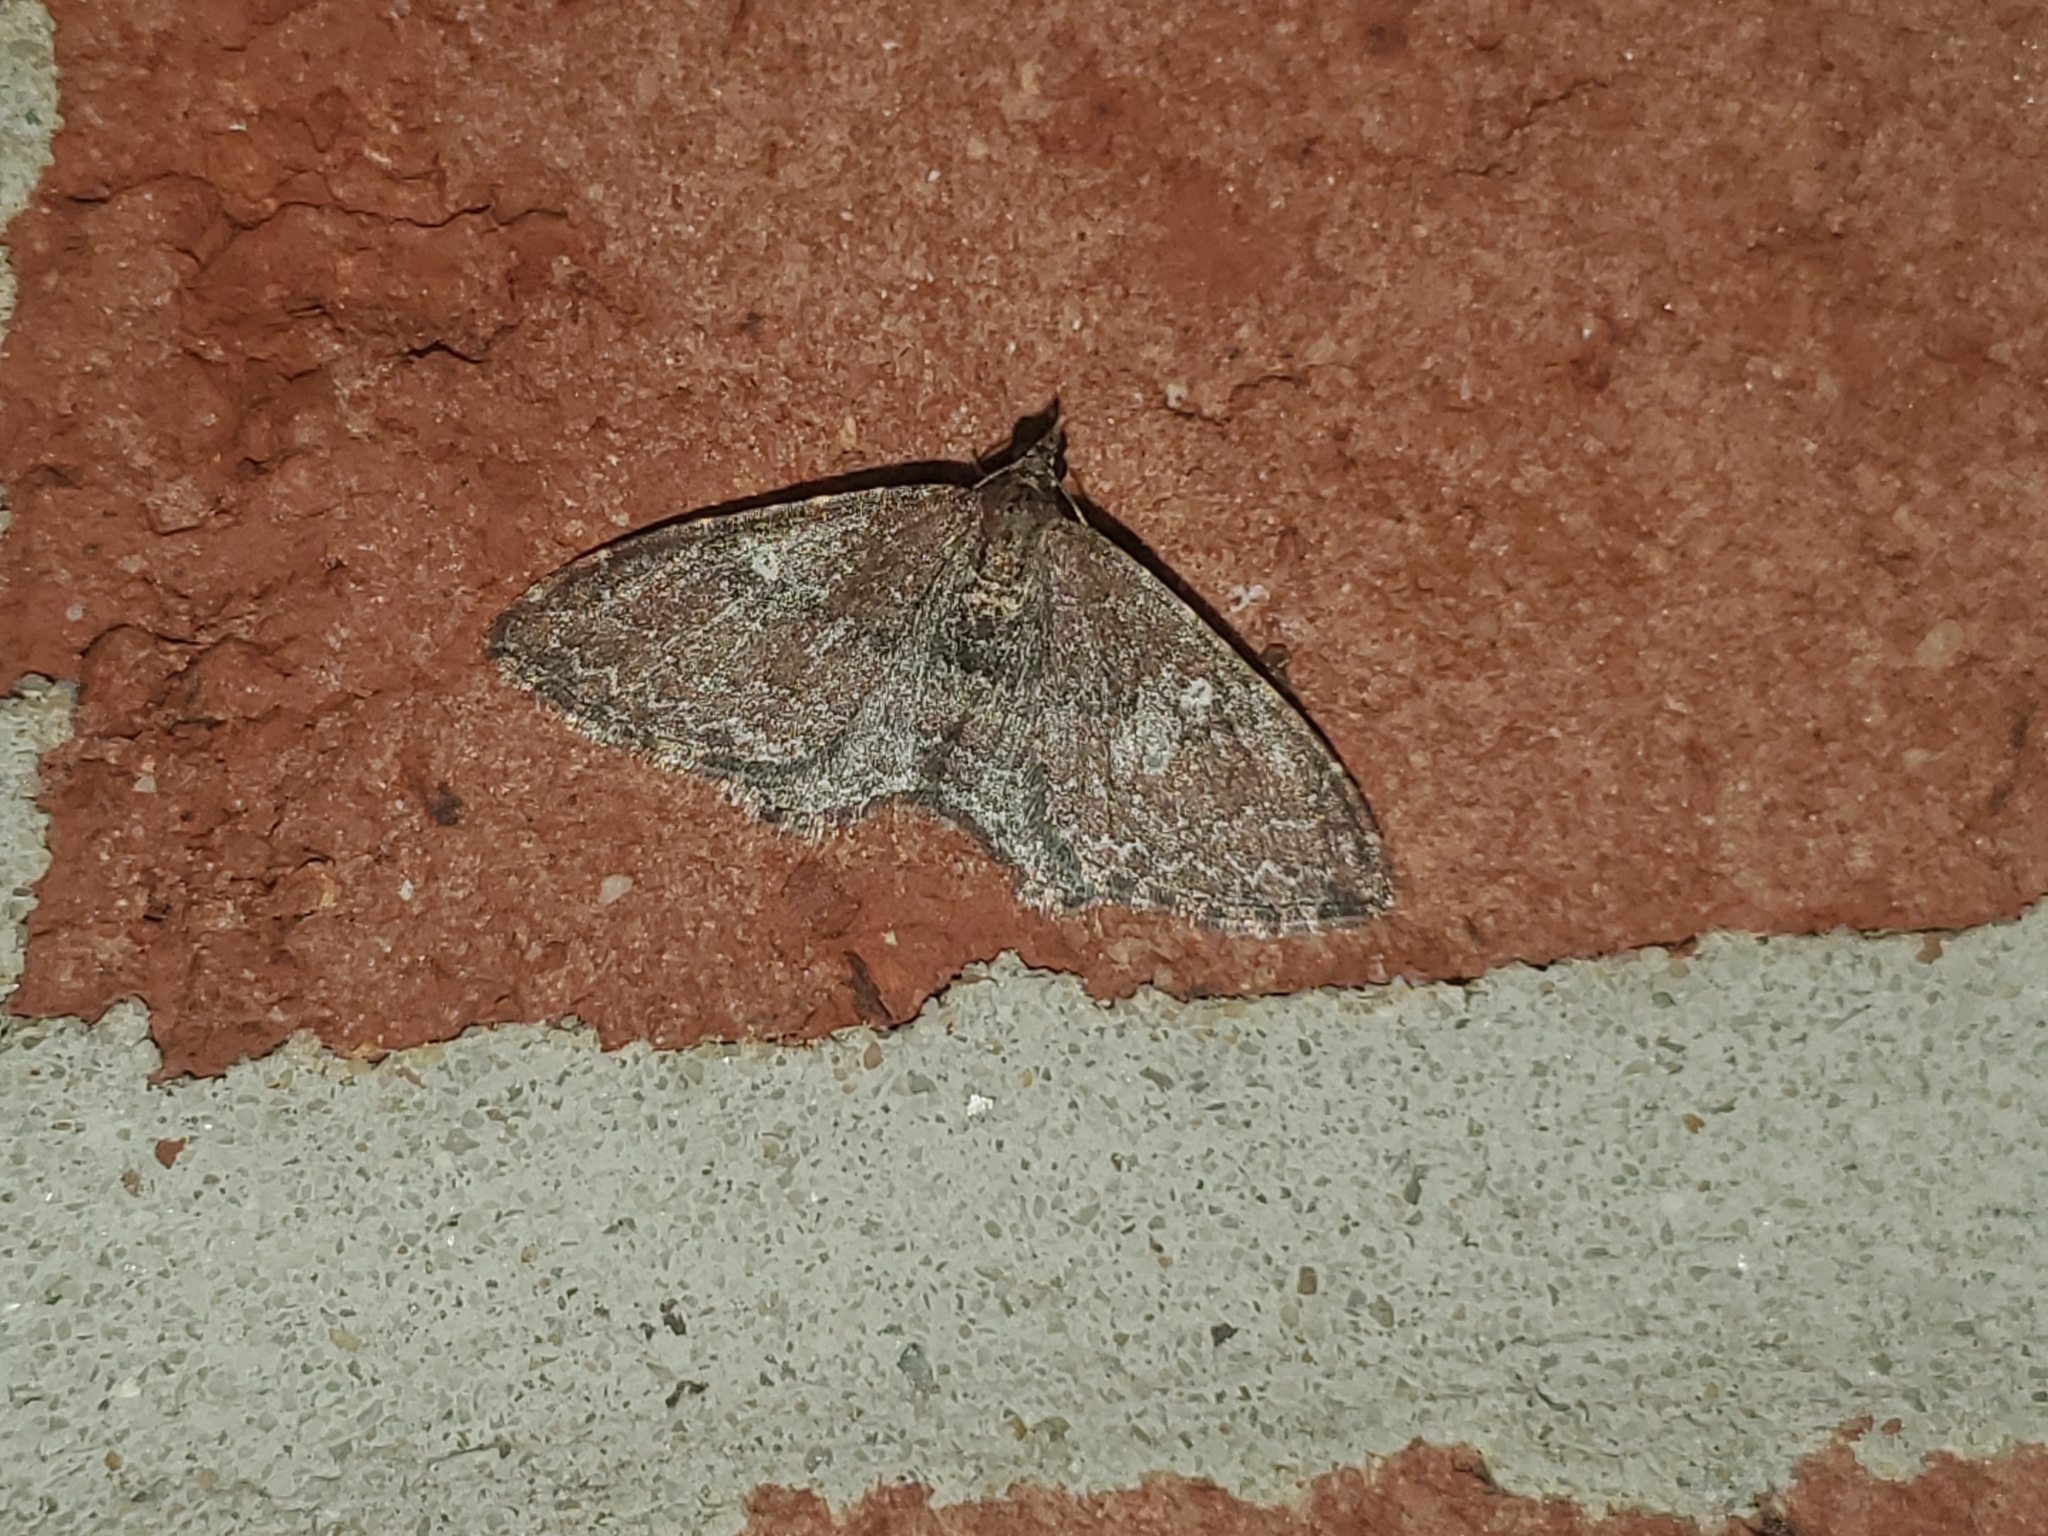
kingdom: Animalia
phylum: Arthropoda
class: Insecta
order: Lepidoptera
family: Geometridae
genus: Orthonama
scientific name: Orthonama obstipata
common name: The gem
